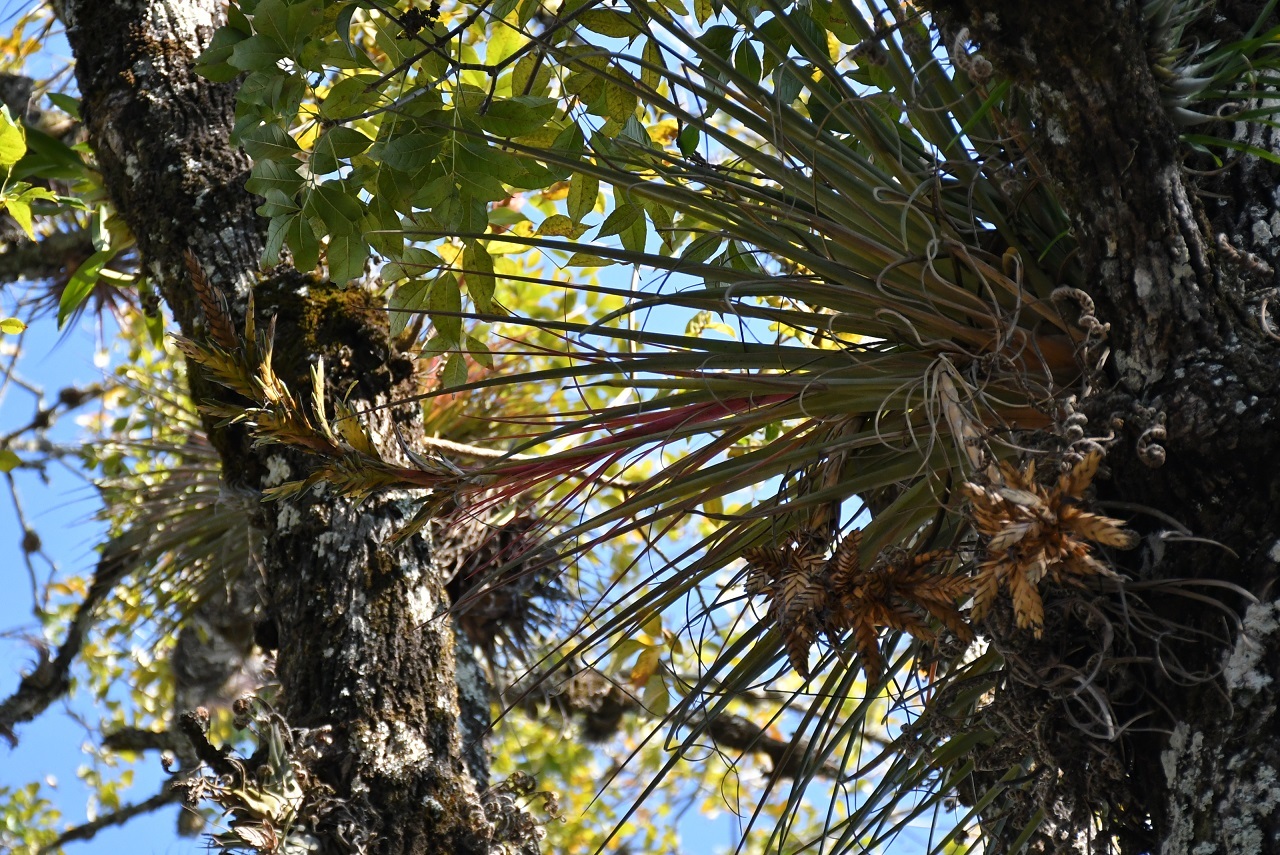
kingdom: Plantae
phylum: Tracheophyta
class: Liliopsida
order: Poales
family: Bromeliaceae
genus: Tillandsia
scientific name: Tillandsia rodrigueziana
